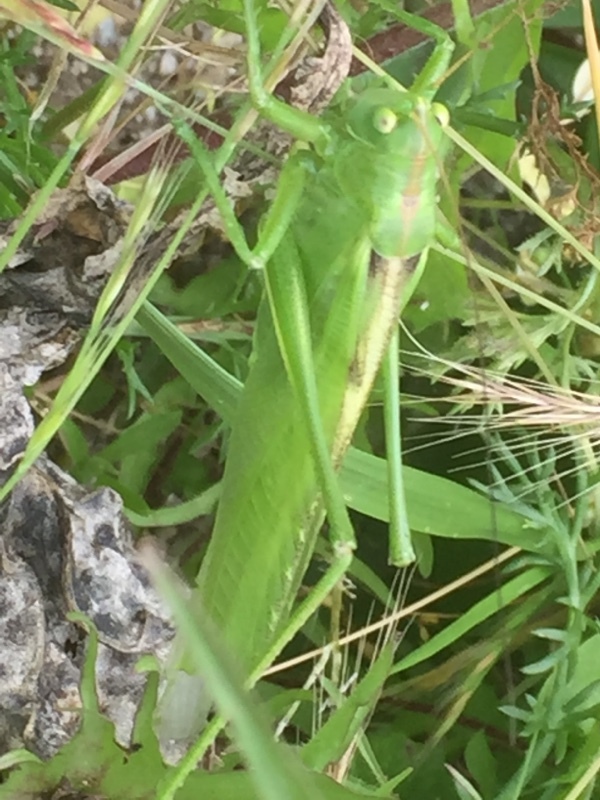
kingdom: Animalia
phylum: Arthropoda
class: Insecta
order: Orthoptera
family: Tettigoniidae
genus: Tettigonia
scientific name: Tettigonia viridissima
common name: Great green bush-cricket
